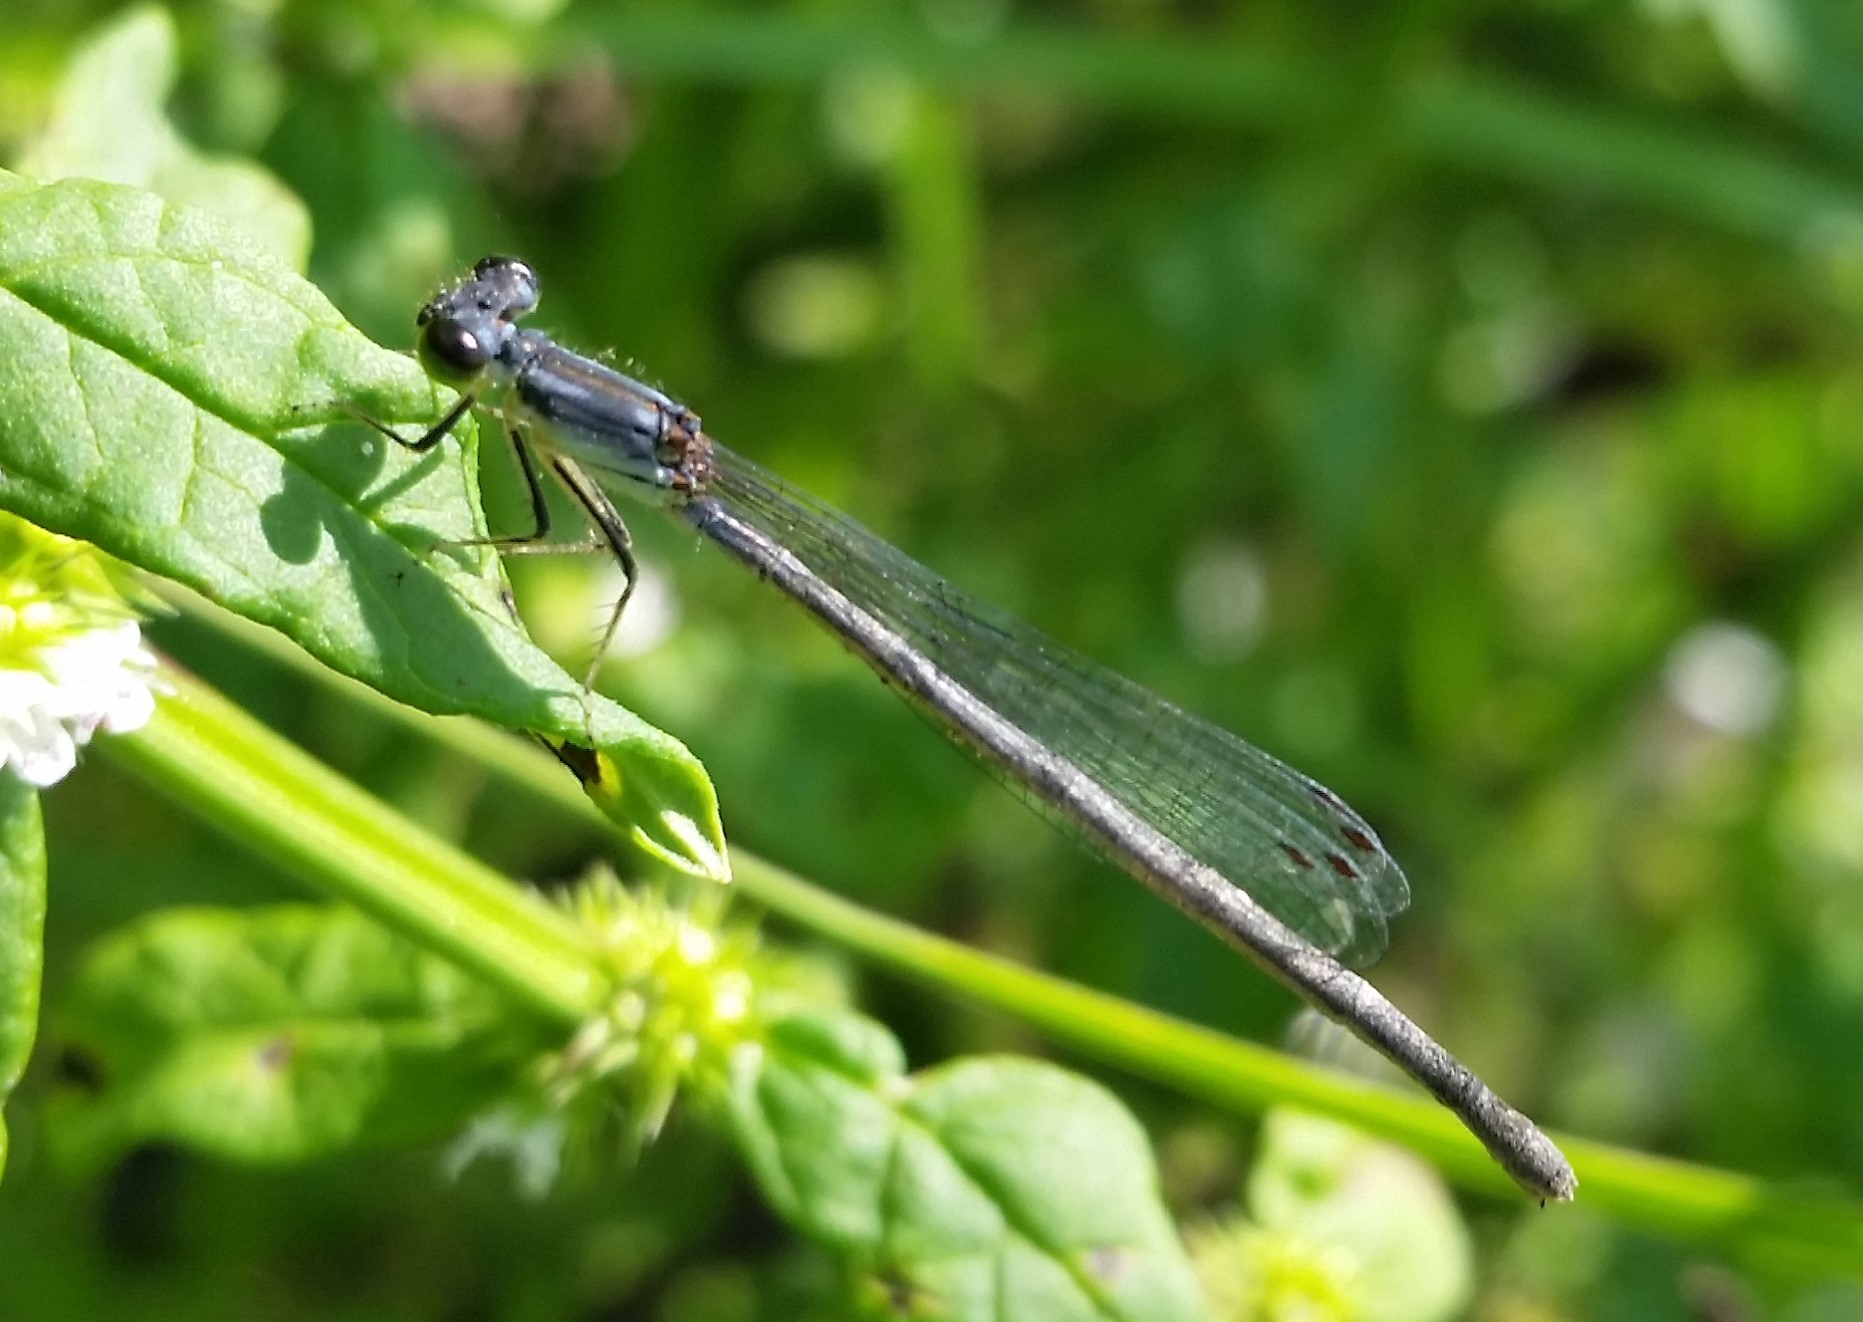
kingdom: Animalia
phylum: Arthropoda
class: Insecta
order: Odonata
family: Coenagrionidae
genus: Ischnura
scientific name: Ischnura posita
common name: Fragile forktail
